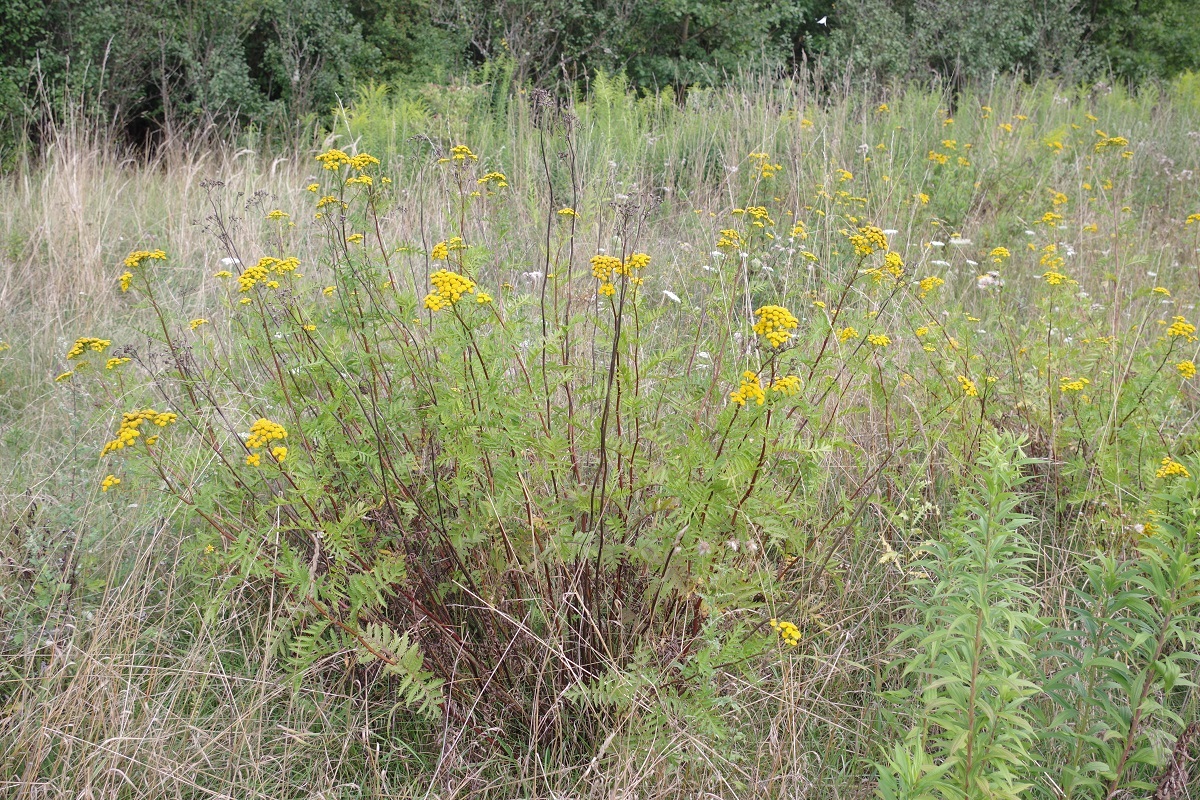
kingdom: Plantae
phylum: Tracheophyta
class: Magnoliopsida
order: Asterales
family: Asteraceae
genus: Tanacetum
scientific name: Tanacetum vulgare
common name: Common tansy
